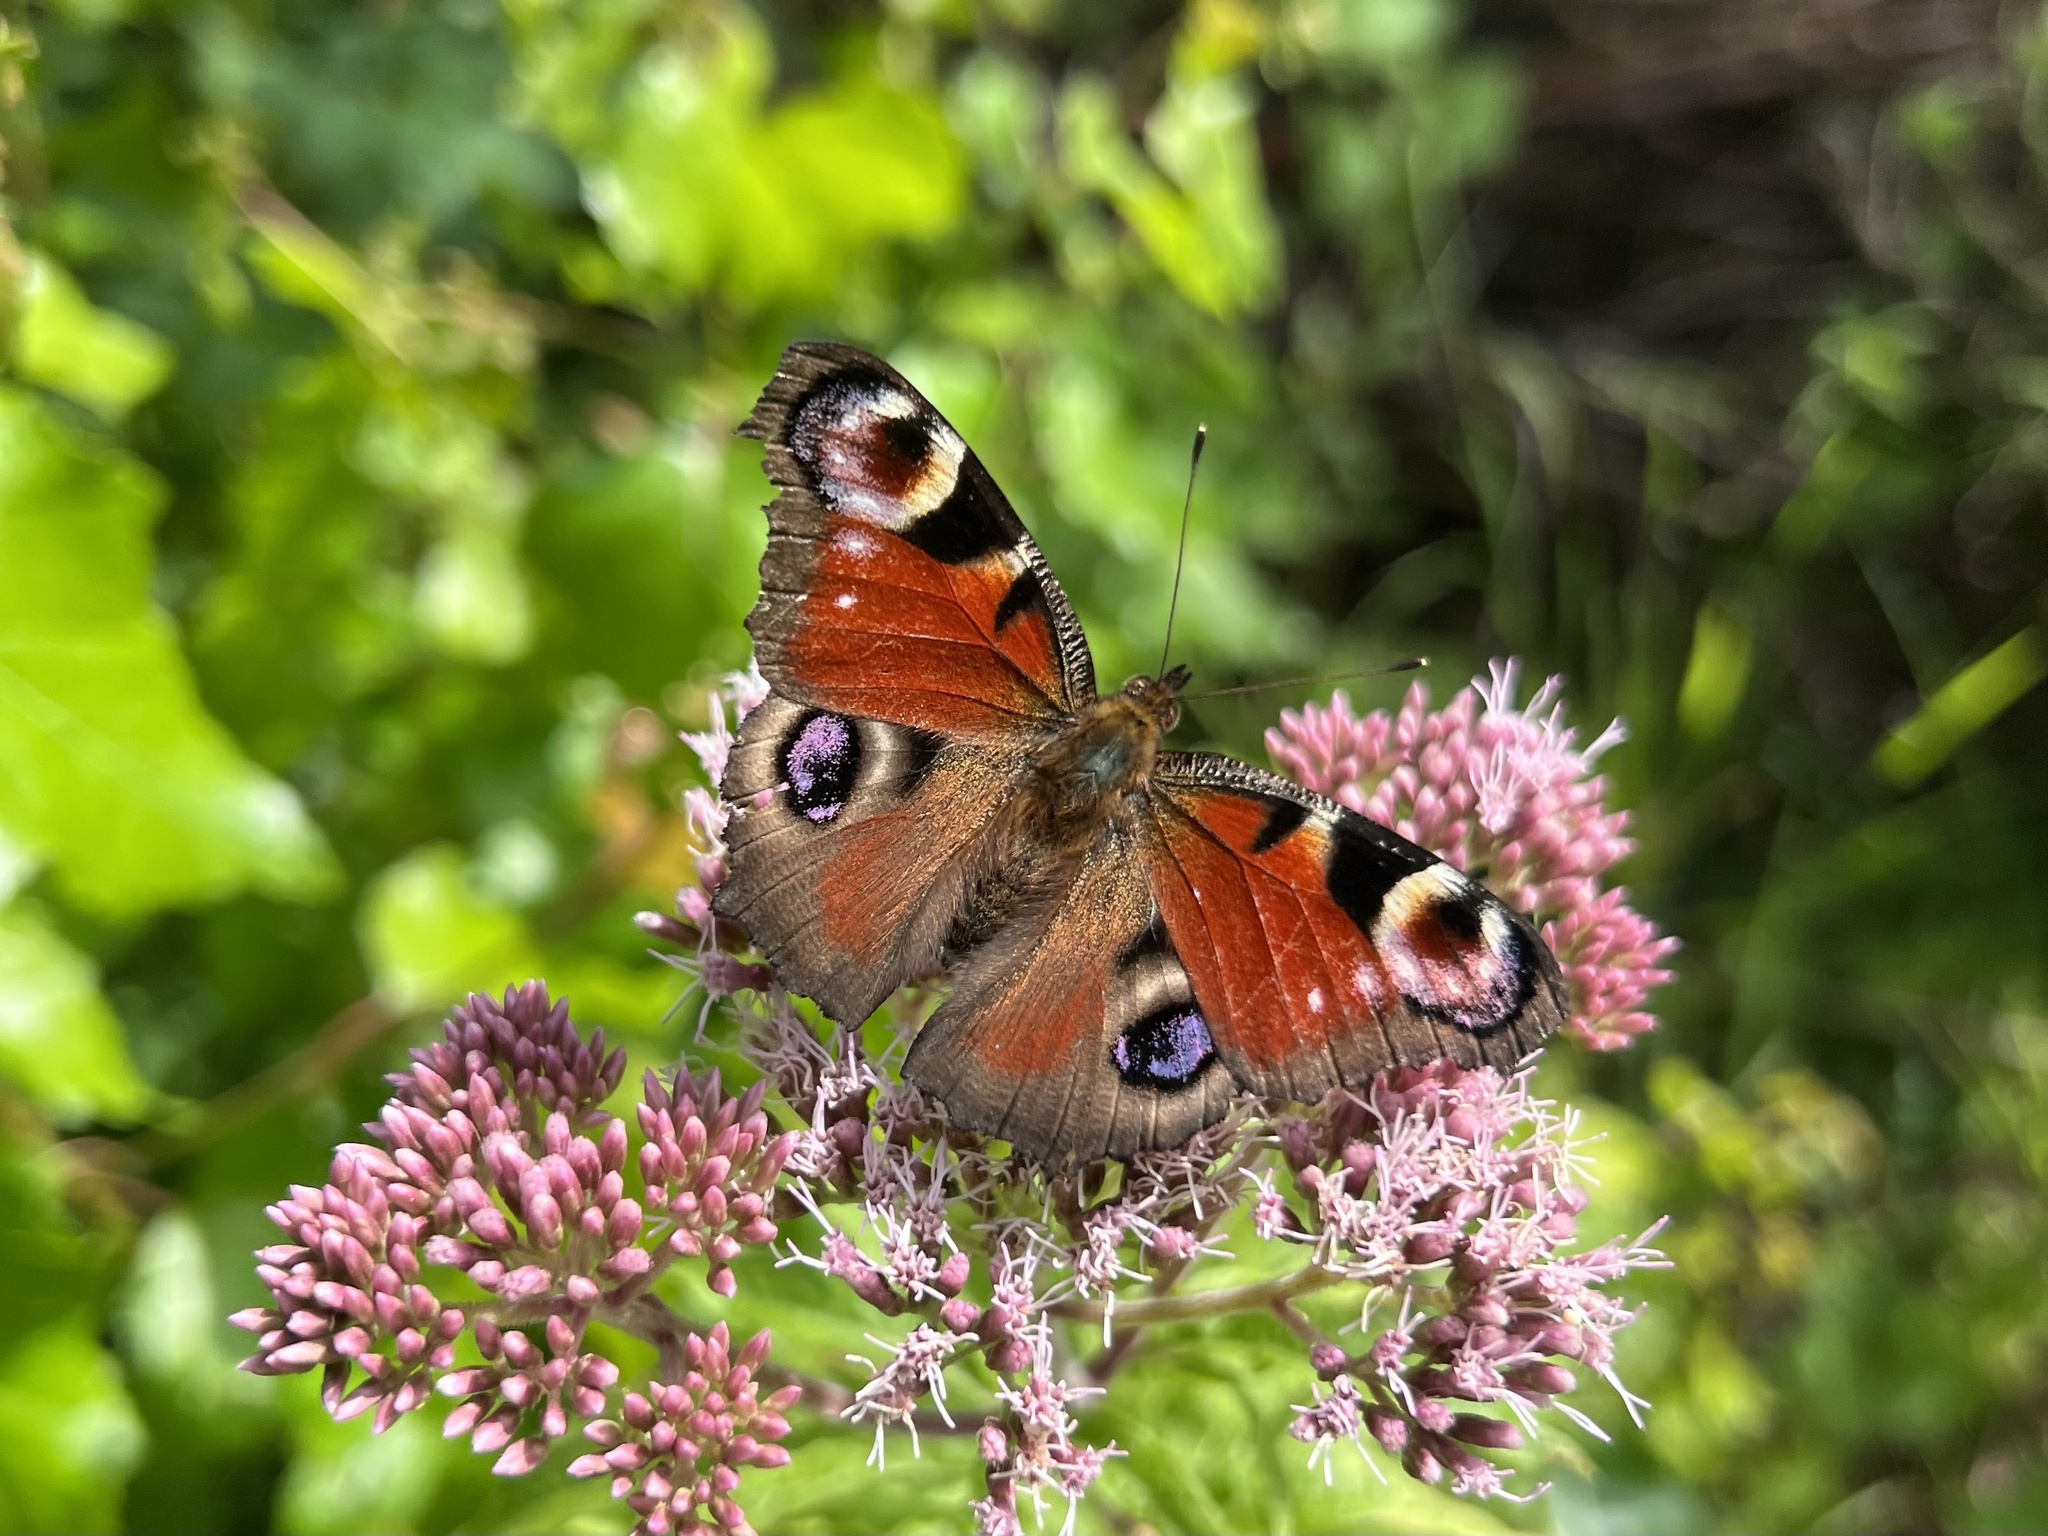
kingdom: Animalia
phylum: Arthropoda
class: Insecta
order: Lepidoptera
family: Nymphalidae
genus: Aglais
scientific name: Aglais io
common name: Peacock
